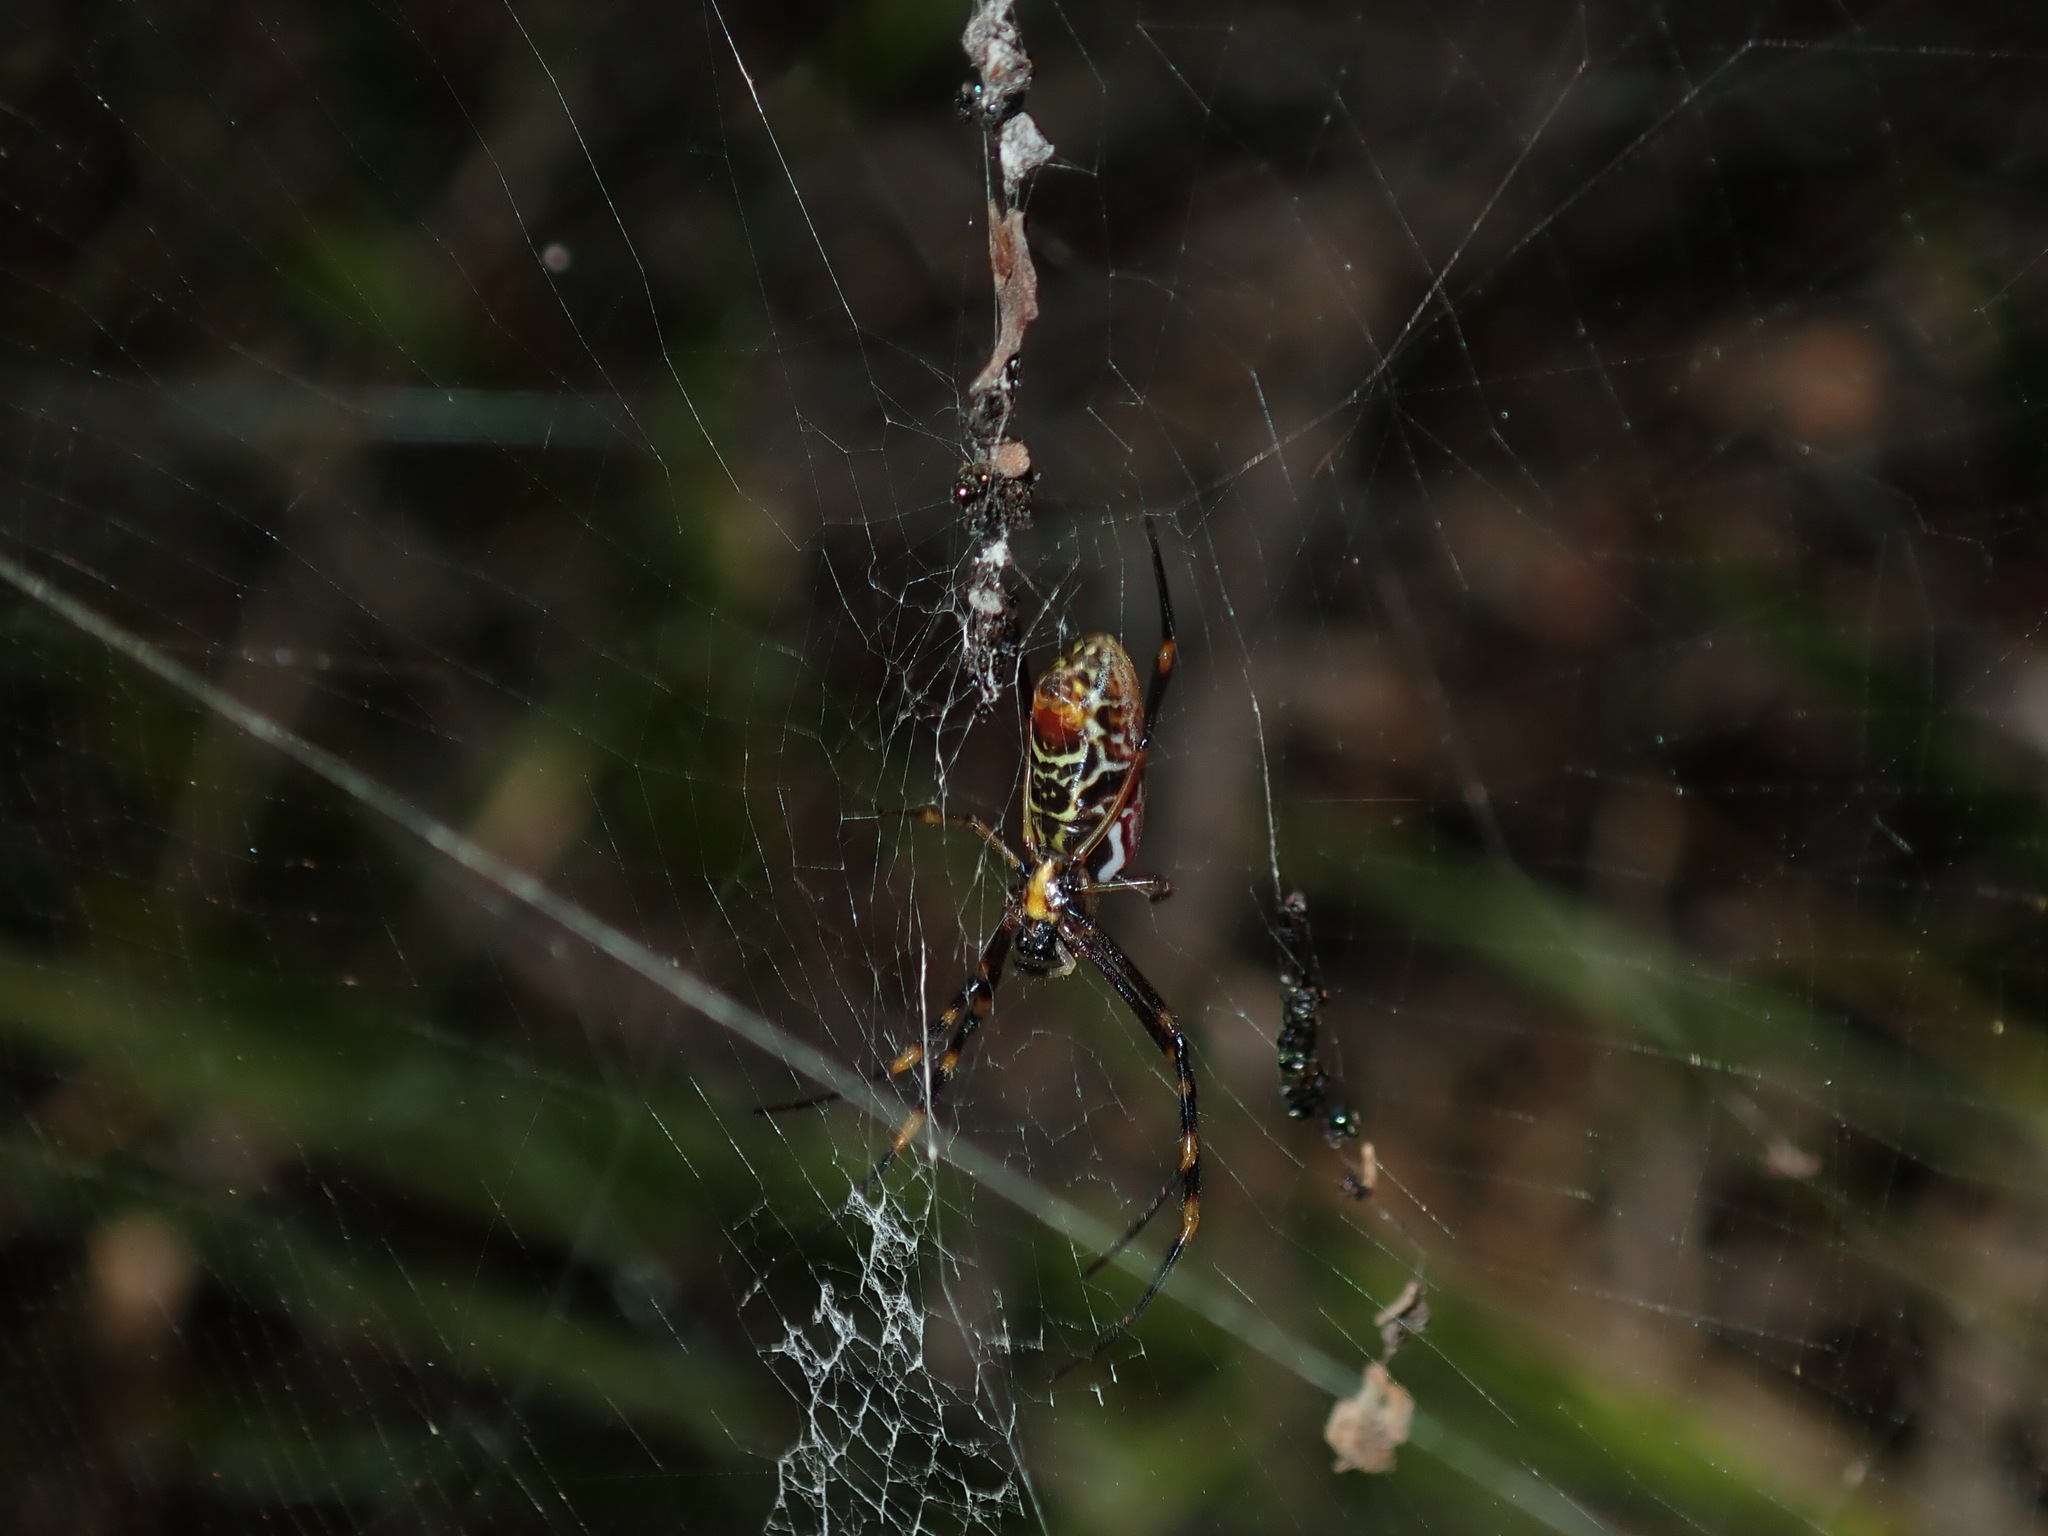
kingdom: Animalia
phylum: Arthropoda
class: Arachnida
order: Araneae
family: Araneidae
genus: Trichonephila
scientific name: Trichonephila plumipes
